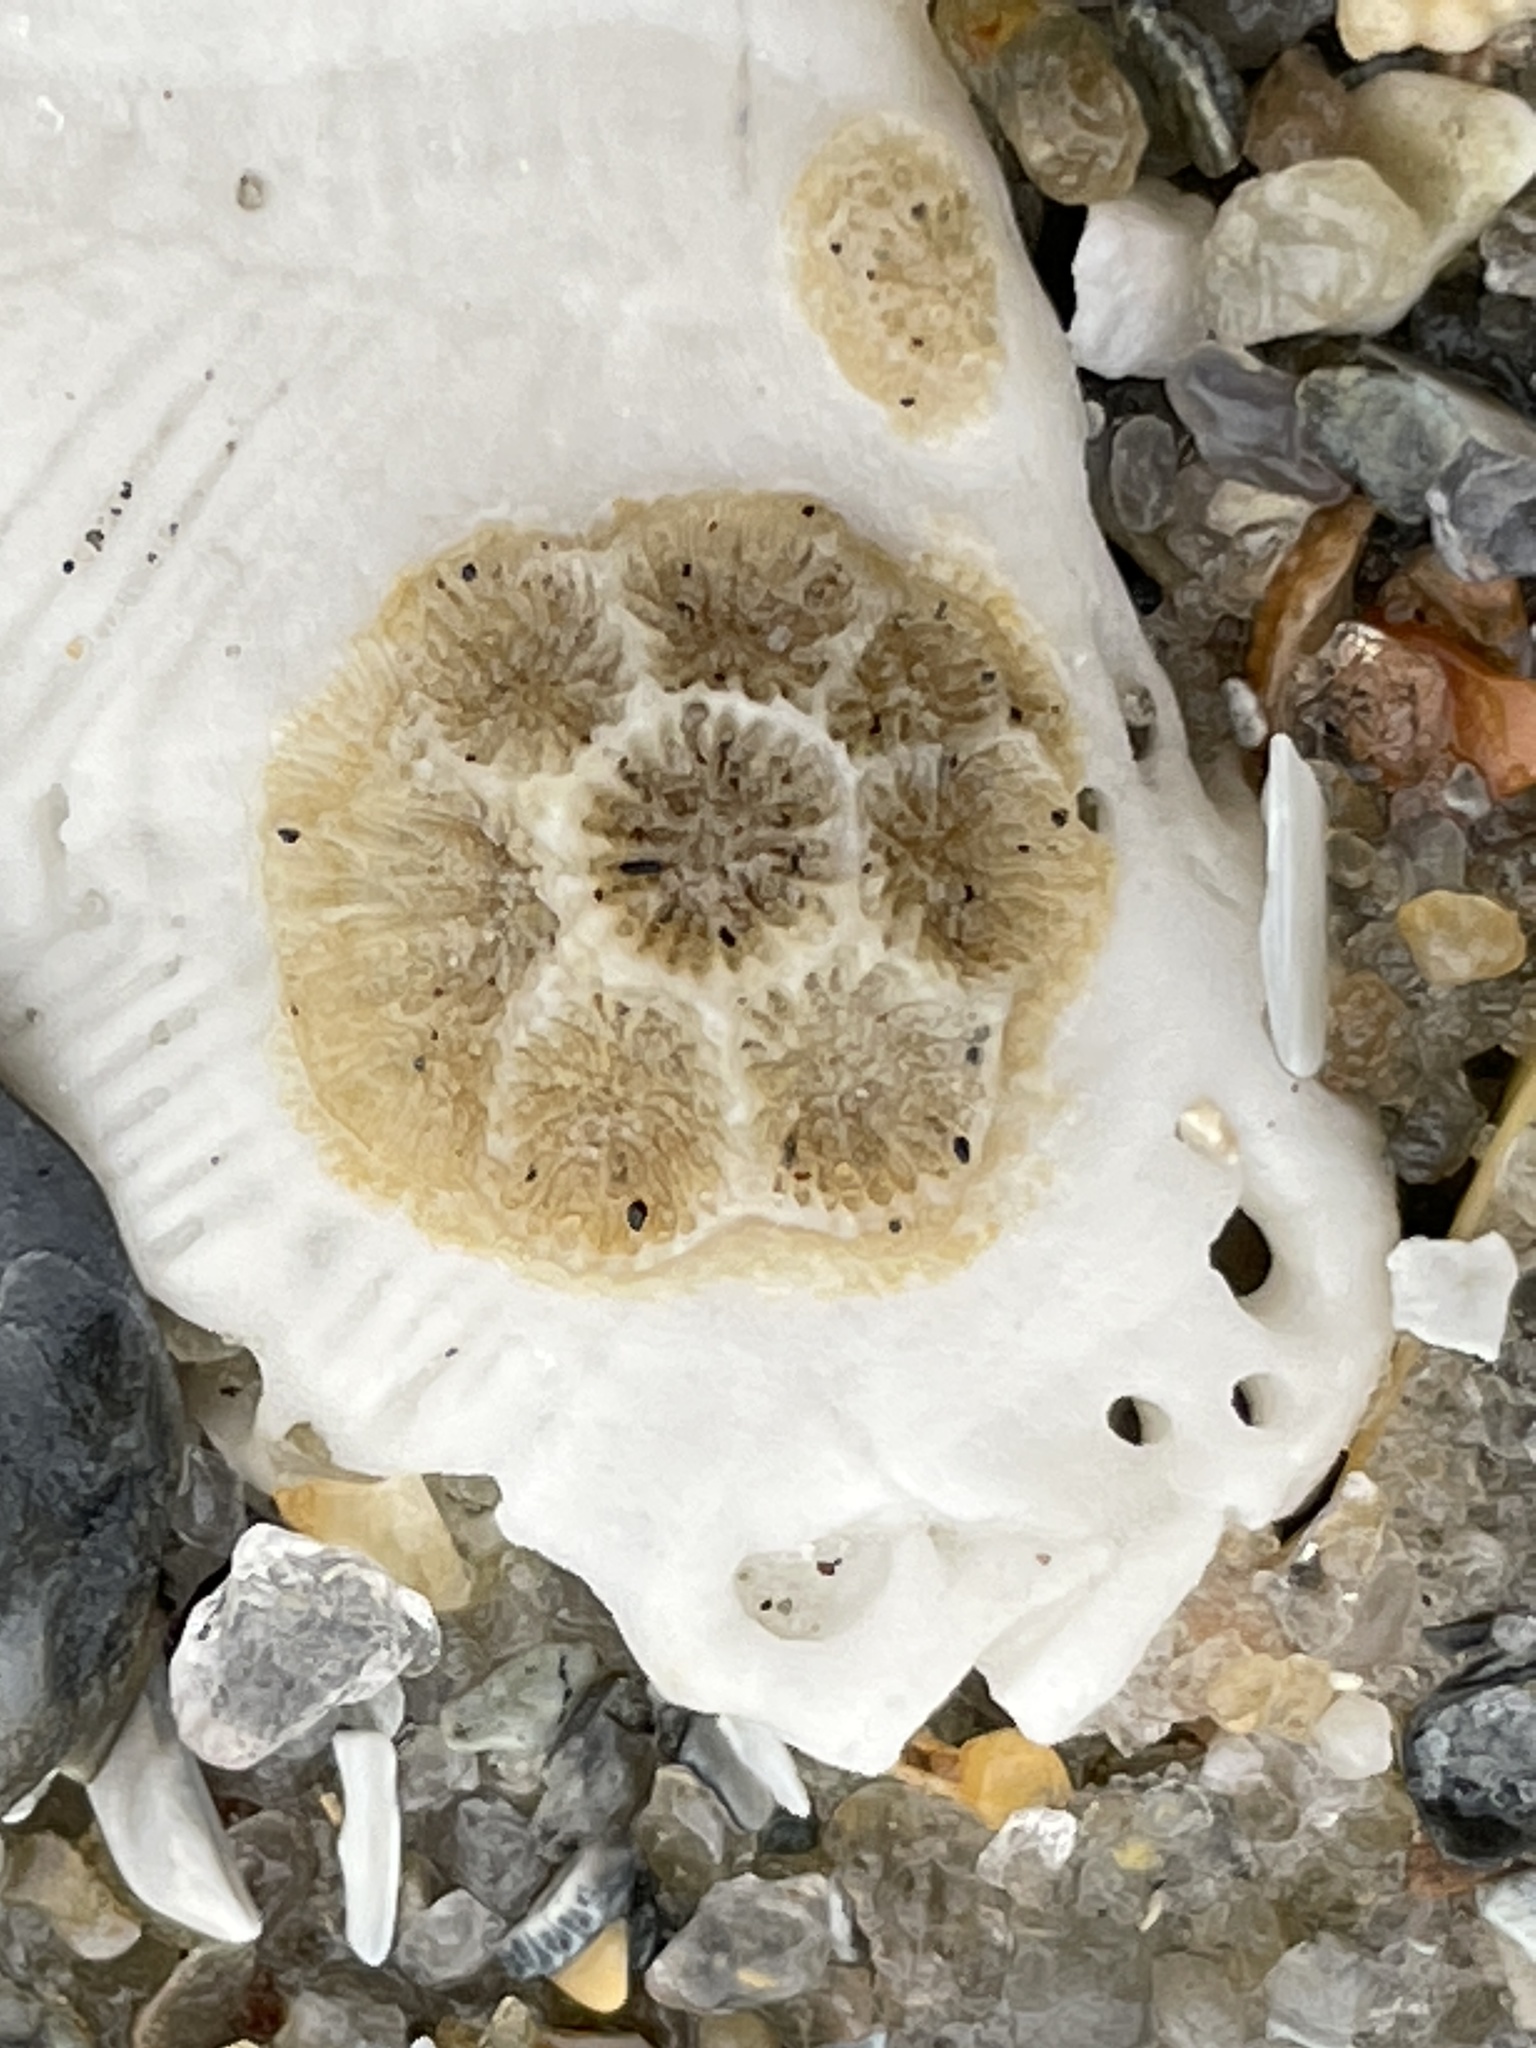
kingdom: Animalia
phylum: Cnidaria
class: Anthozoa
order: Scleractinia
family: Astrangiidae
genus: Astrangia
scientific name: Astrangia poculata
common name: Northern star coral
